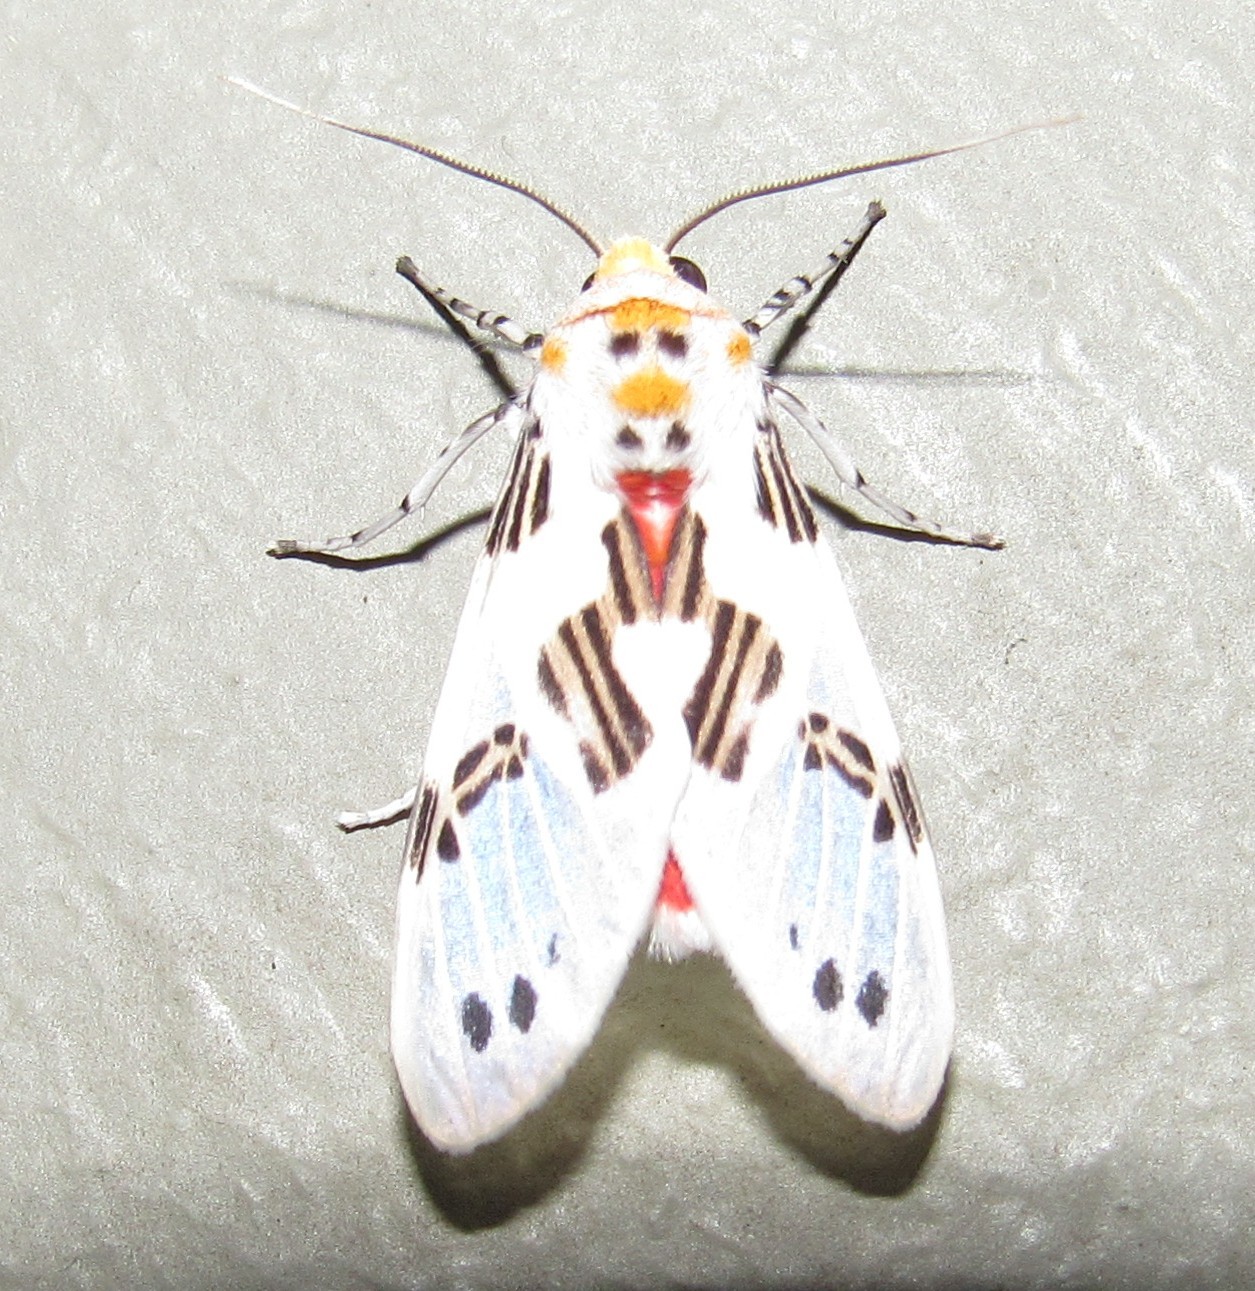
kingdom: Animalia
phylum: Arthropoda
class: Insecta
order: Lepidoptera
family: Erebidae
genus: Idalus
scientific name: Idalus dares
